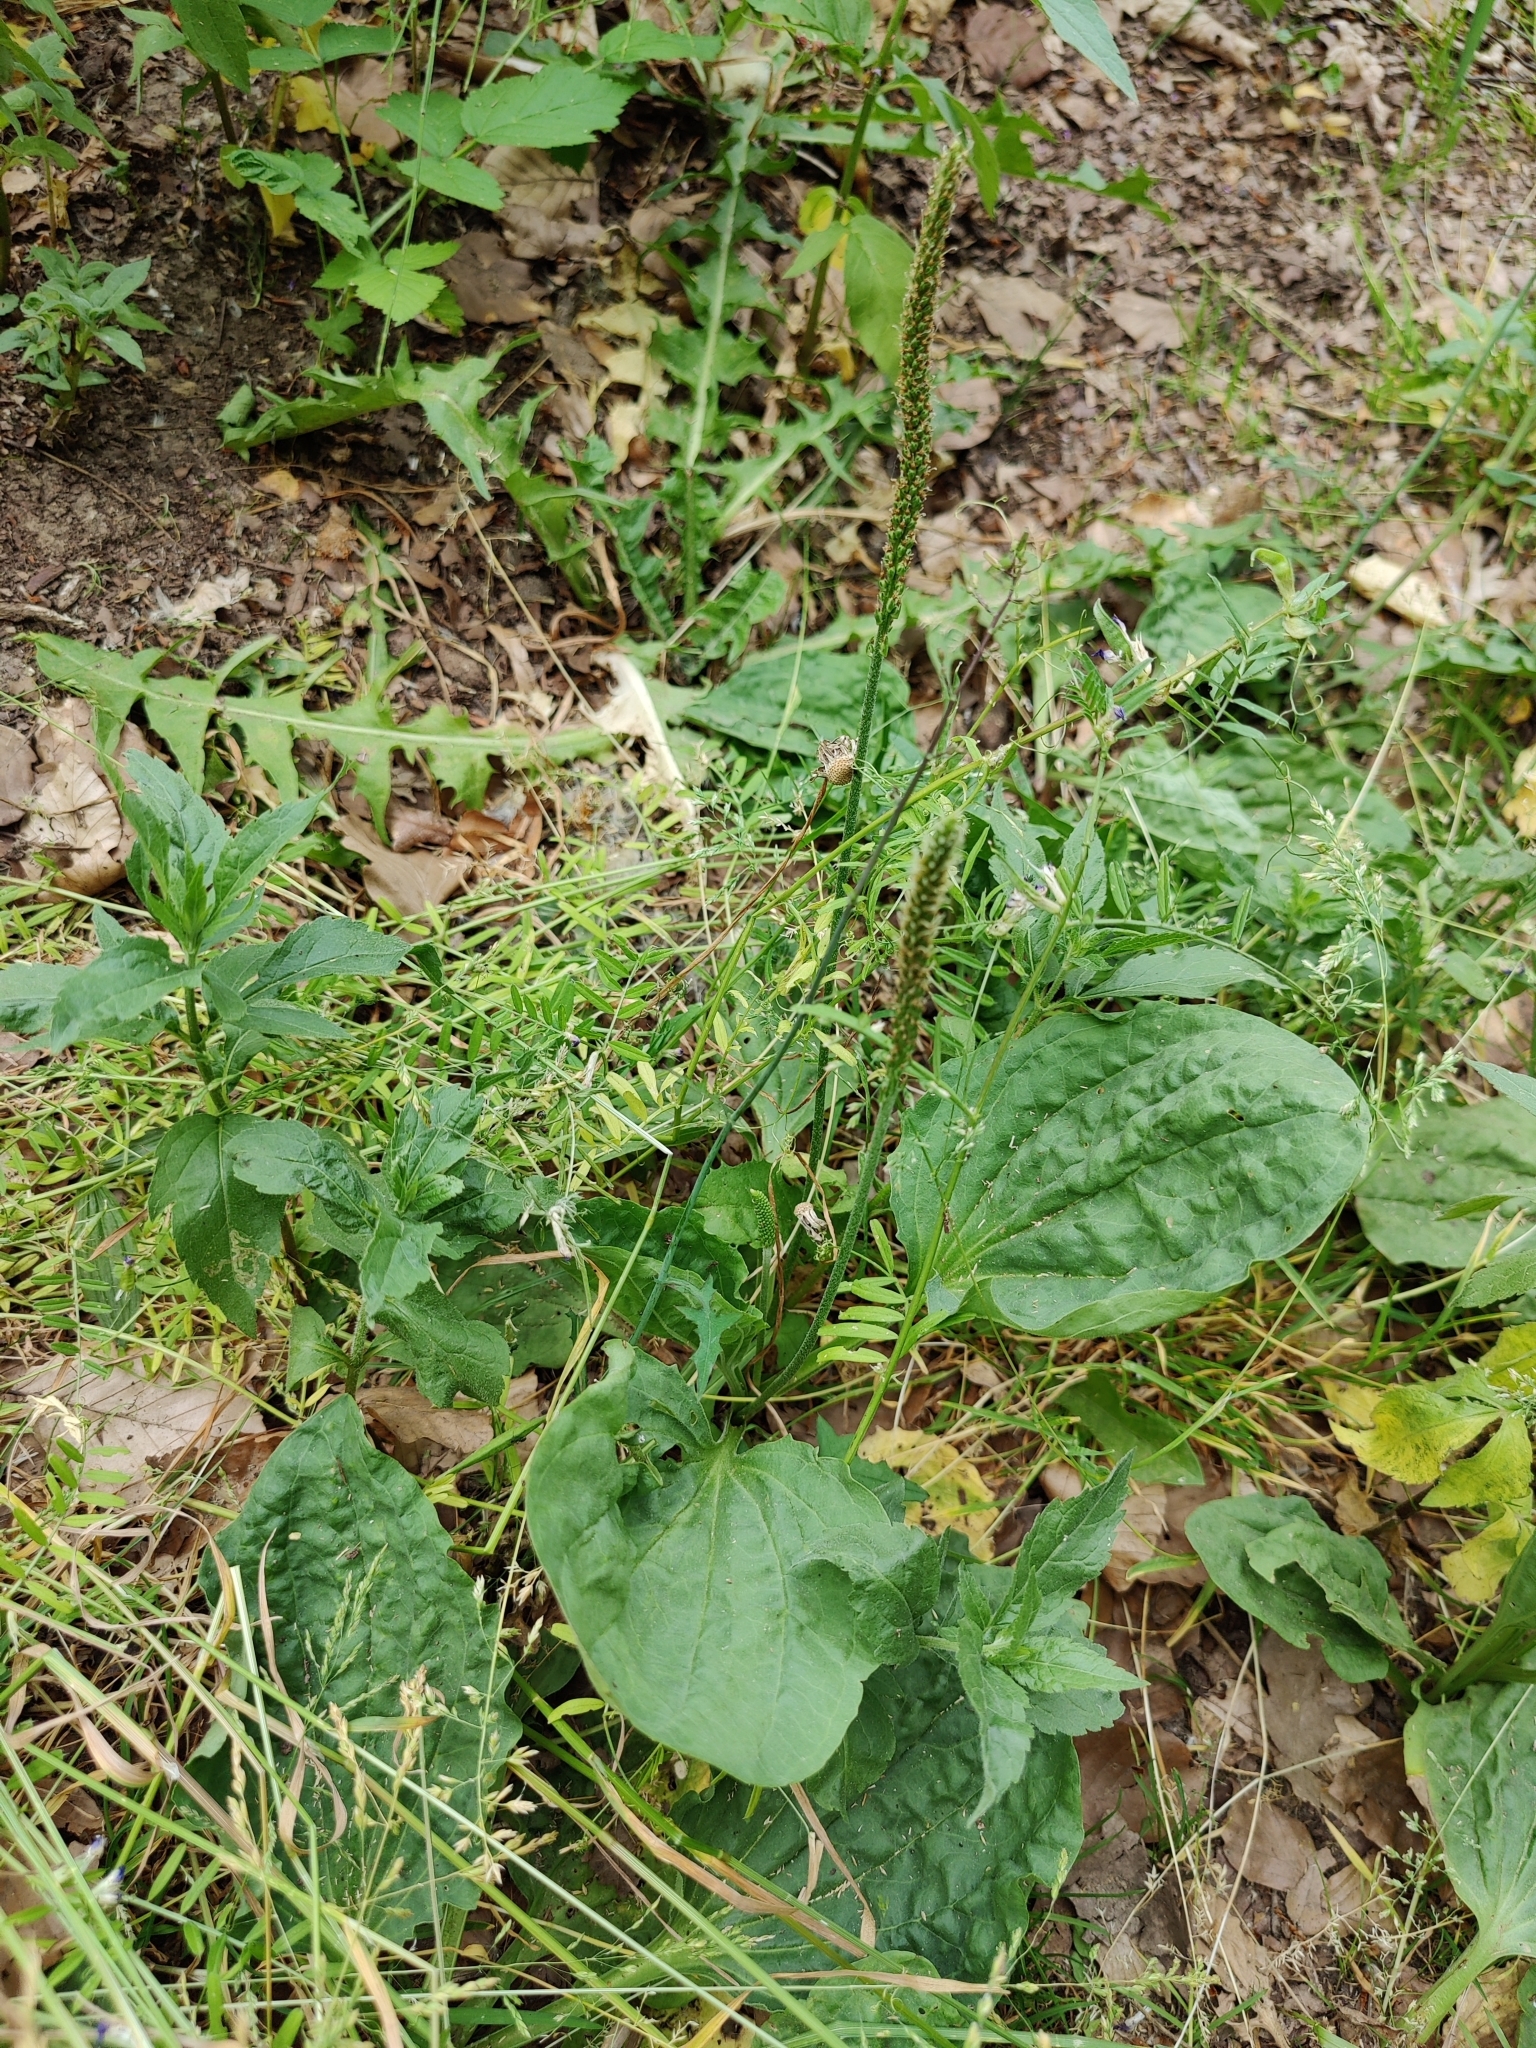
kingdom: Plantae
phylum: Tracheophyta
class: Magnoliopsida
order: Lamiales
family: Plantaginaceae
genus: Plantago
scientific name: Plantago major
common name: Common plantain
